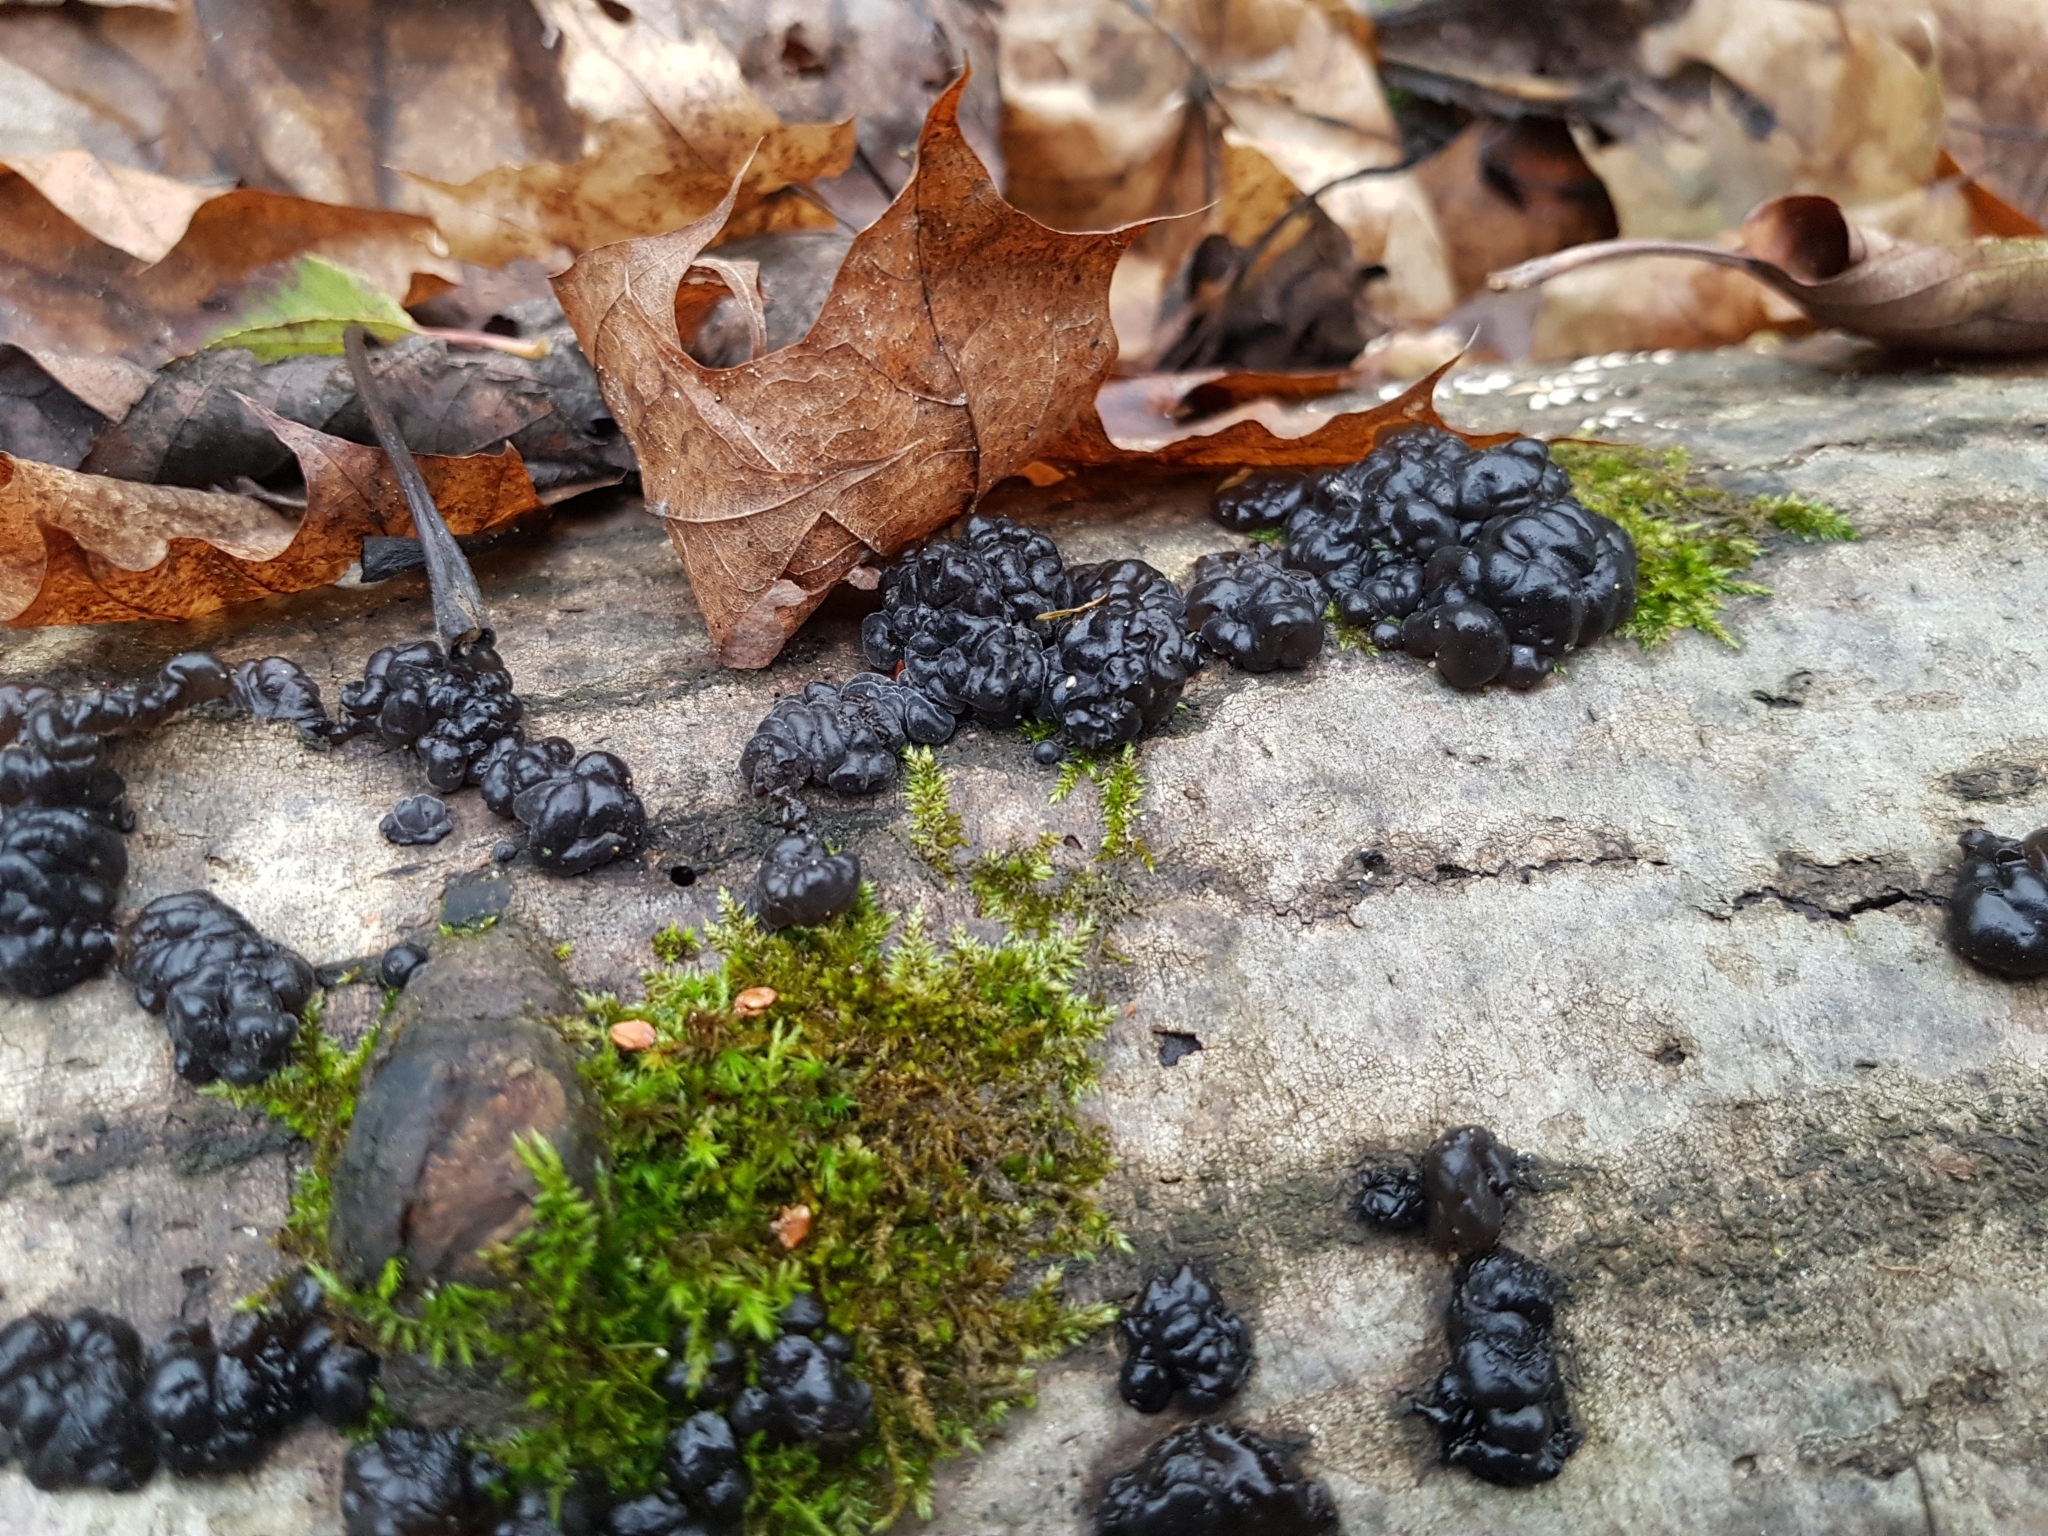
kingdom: Fungi
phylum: Basidiomycota
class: Agaricomycetes
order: Auriculariales
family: Auriculariaceae
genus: Exidia
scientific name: Exidia glandulosa
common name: Witches' butter
